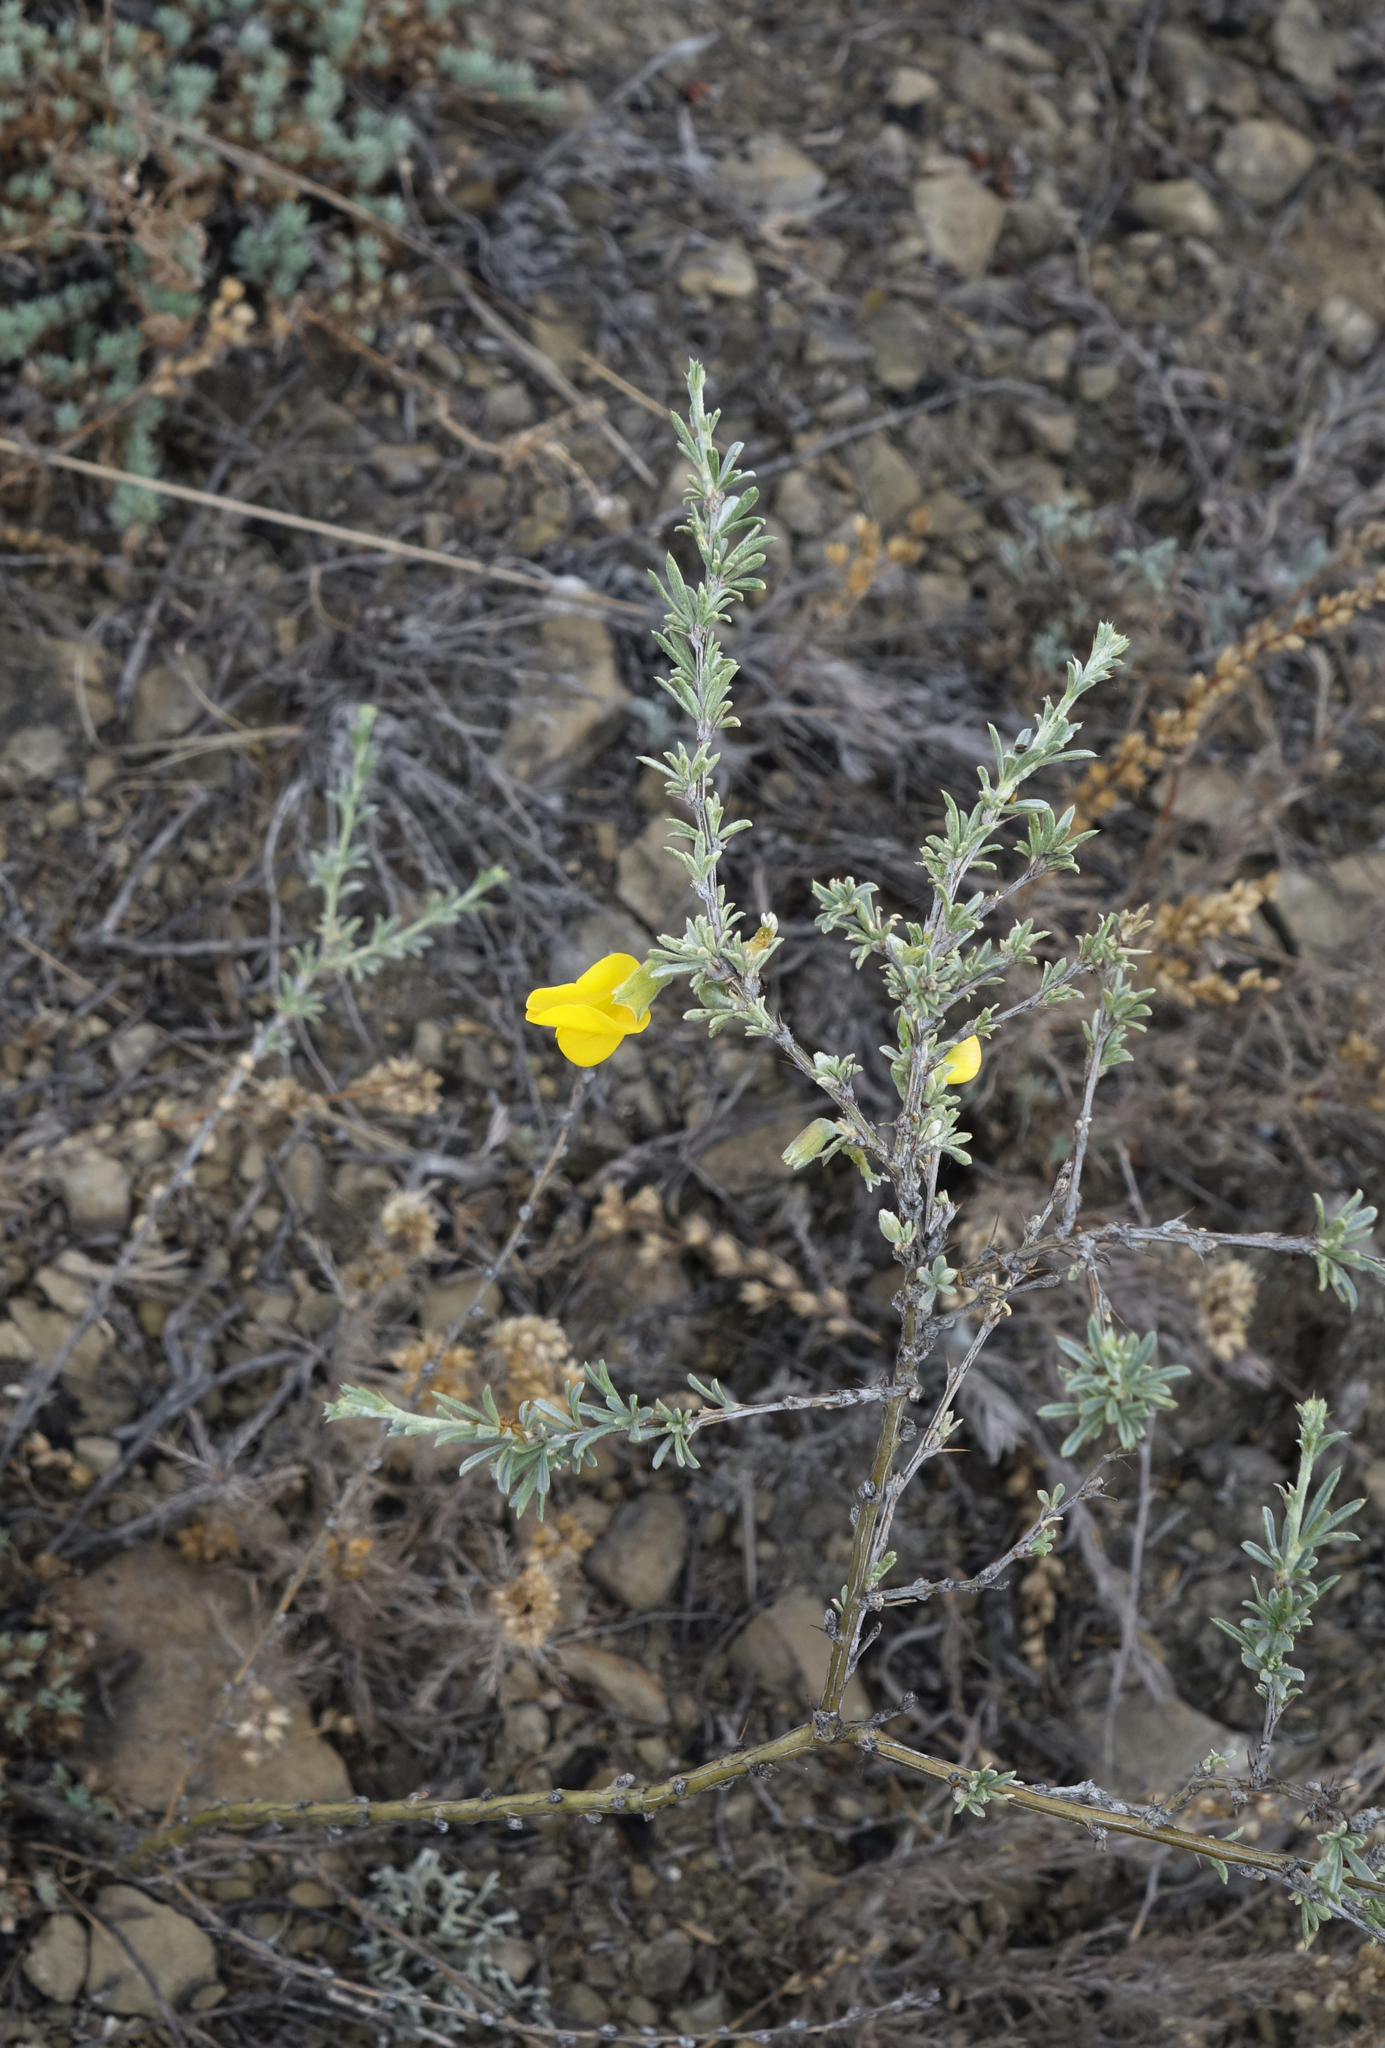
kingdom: Plantae
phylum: Tracheophyta
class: Magnoliopsida
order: Fabales
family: Fabaceae
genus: Caragana
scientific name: Caragana pygmaea
